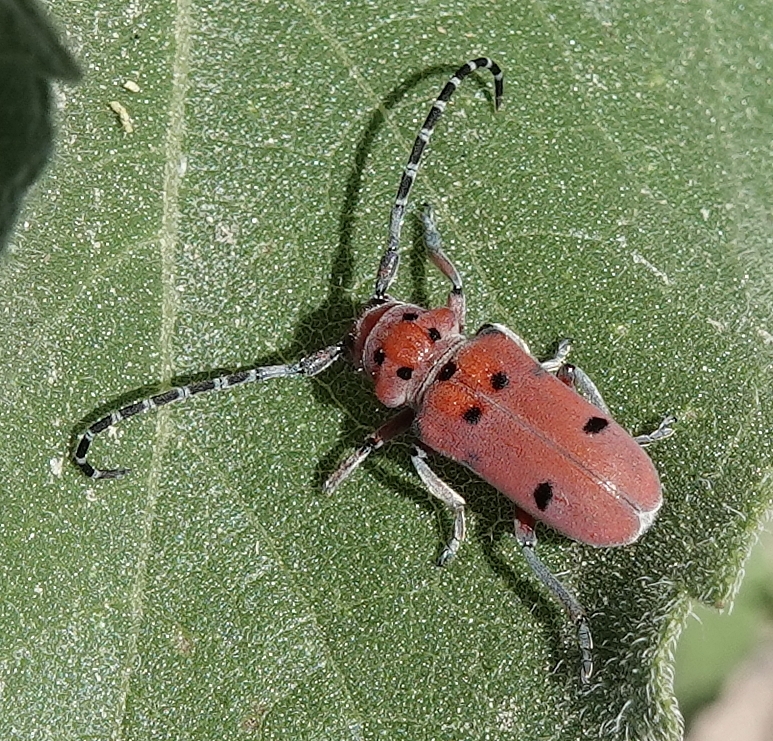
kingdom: Animalia
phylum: Arthropoda
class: Insecta
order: Coleoptera
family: Cerambycidae
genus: Tetraopes
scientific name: Tetraopes femoratus
